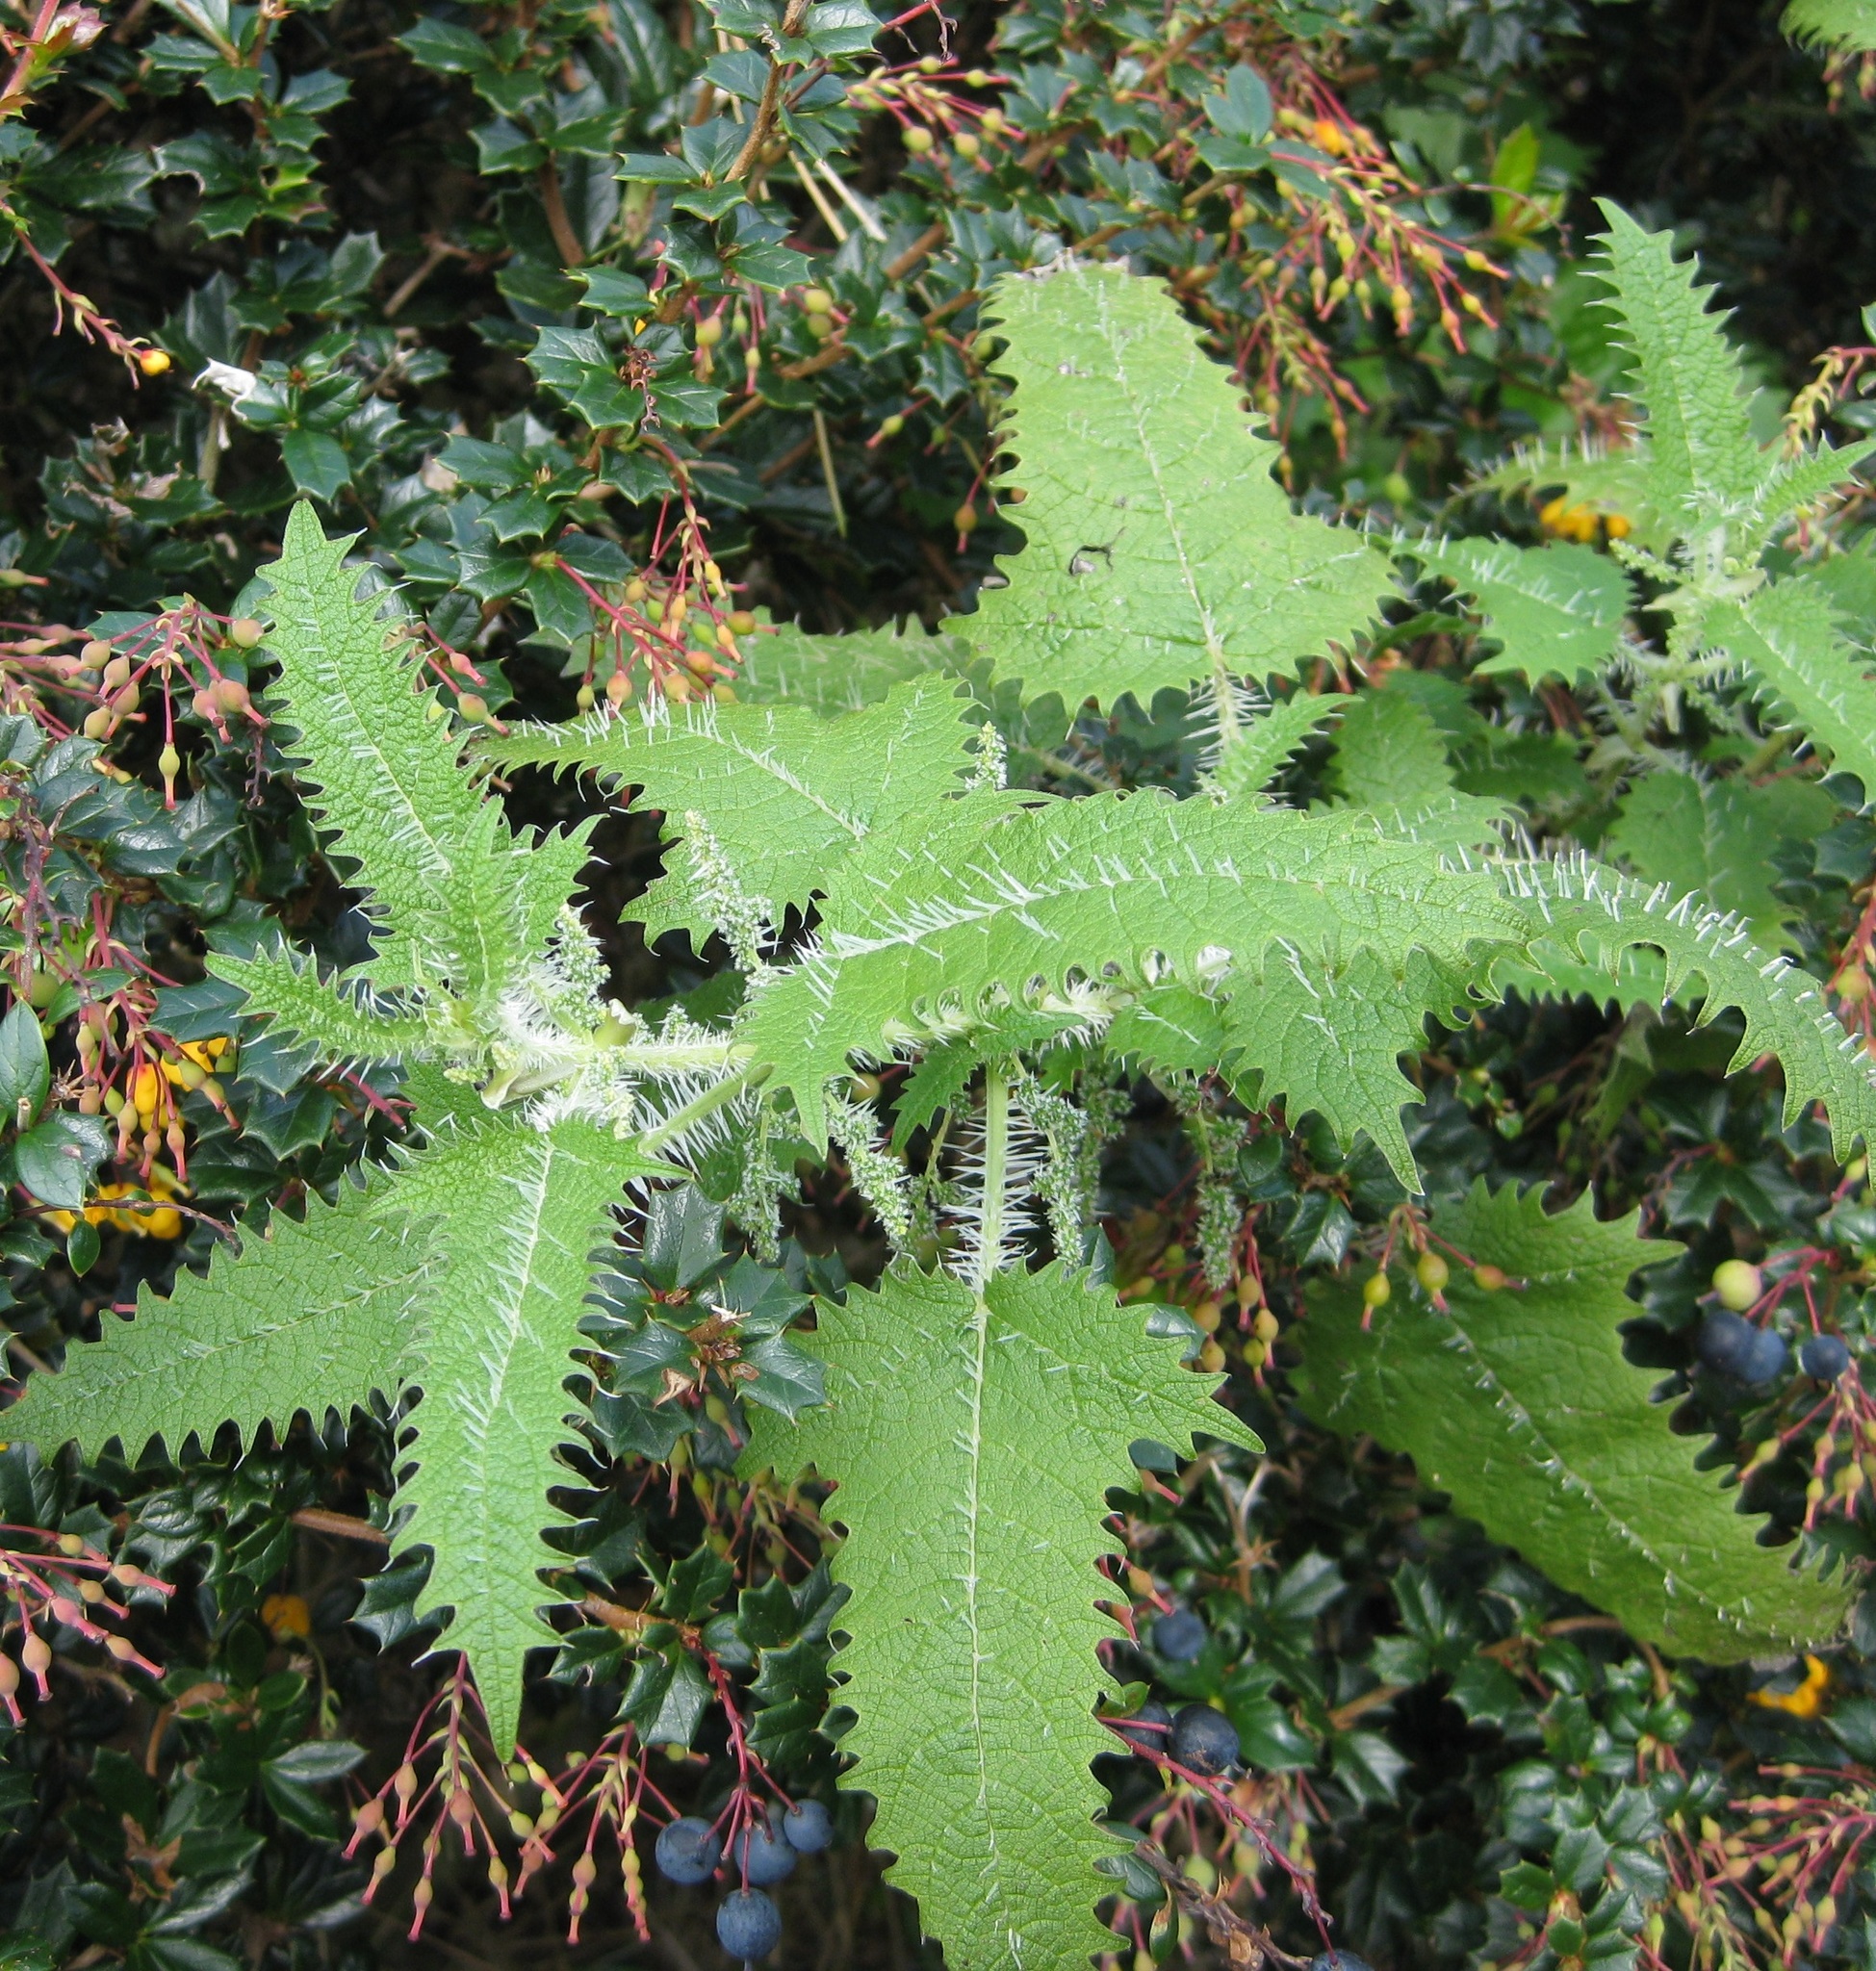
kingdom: Plantae
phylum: Tracheophyta
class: Magnoliopsida
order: Rosales
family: Urticaceae
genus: Urtica
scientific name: Urtica ferox
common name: Tree nettle
